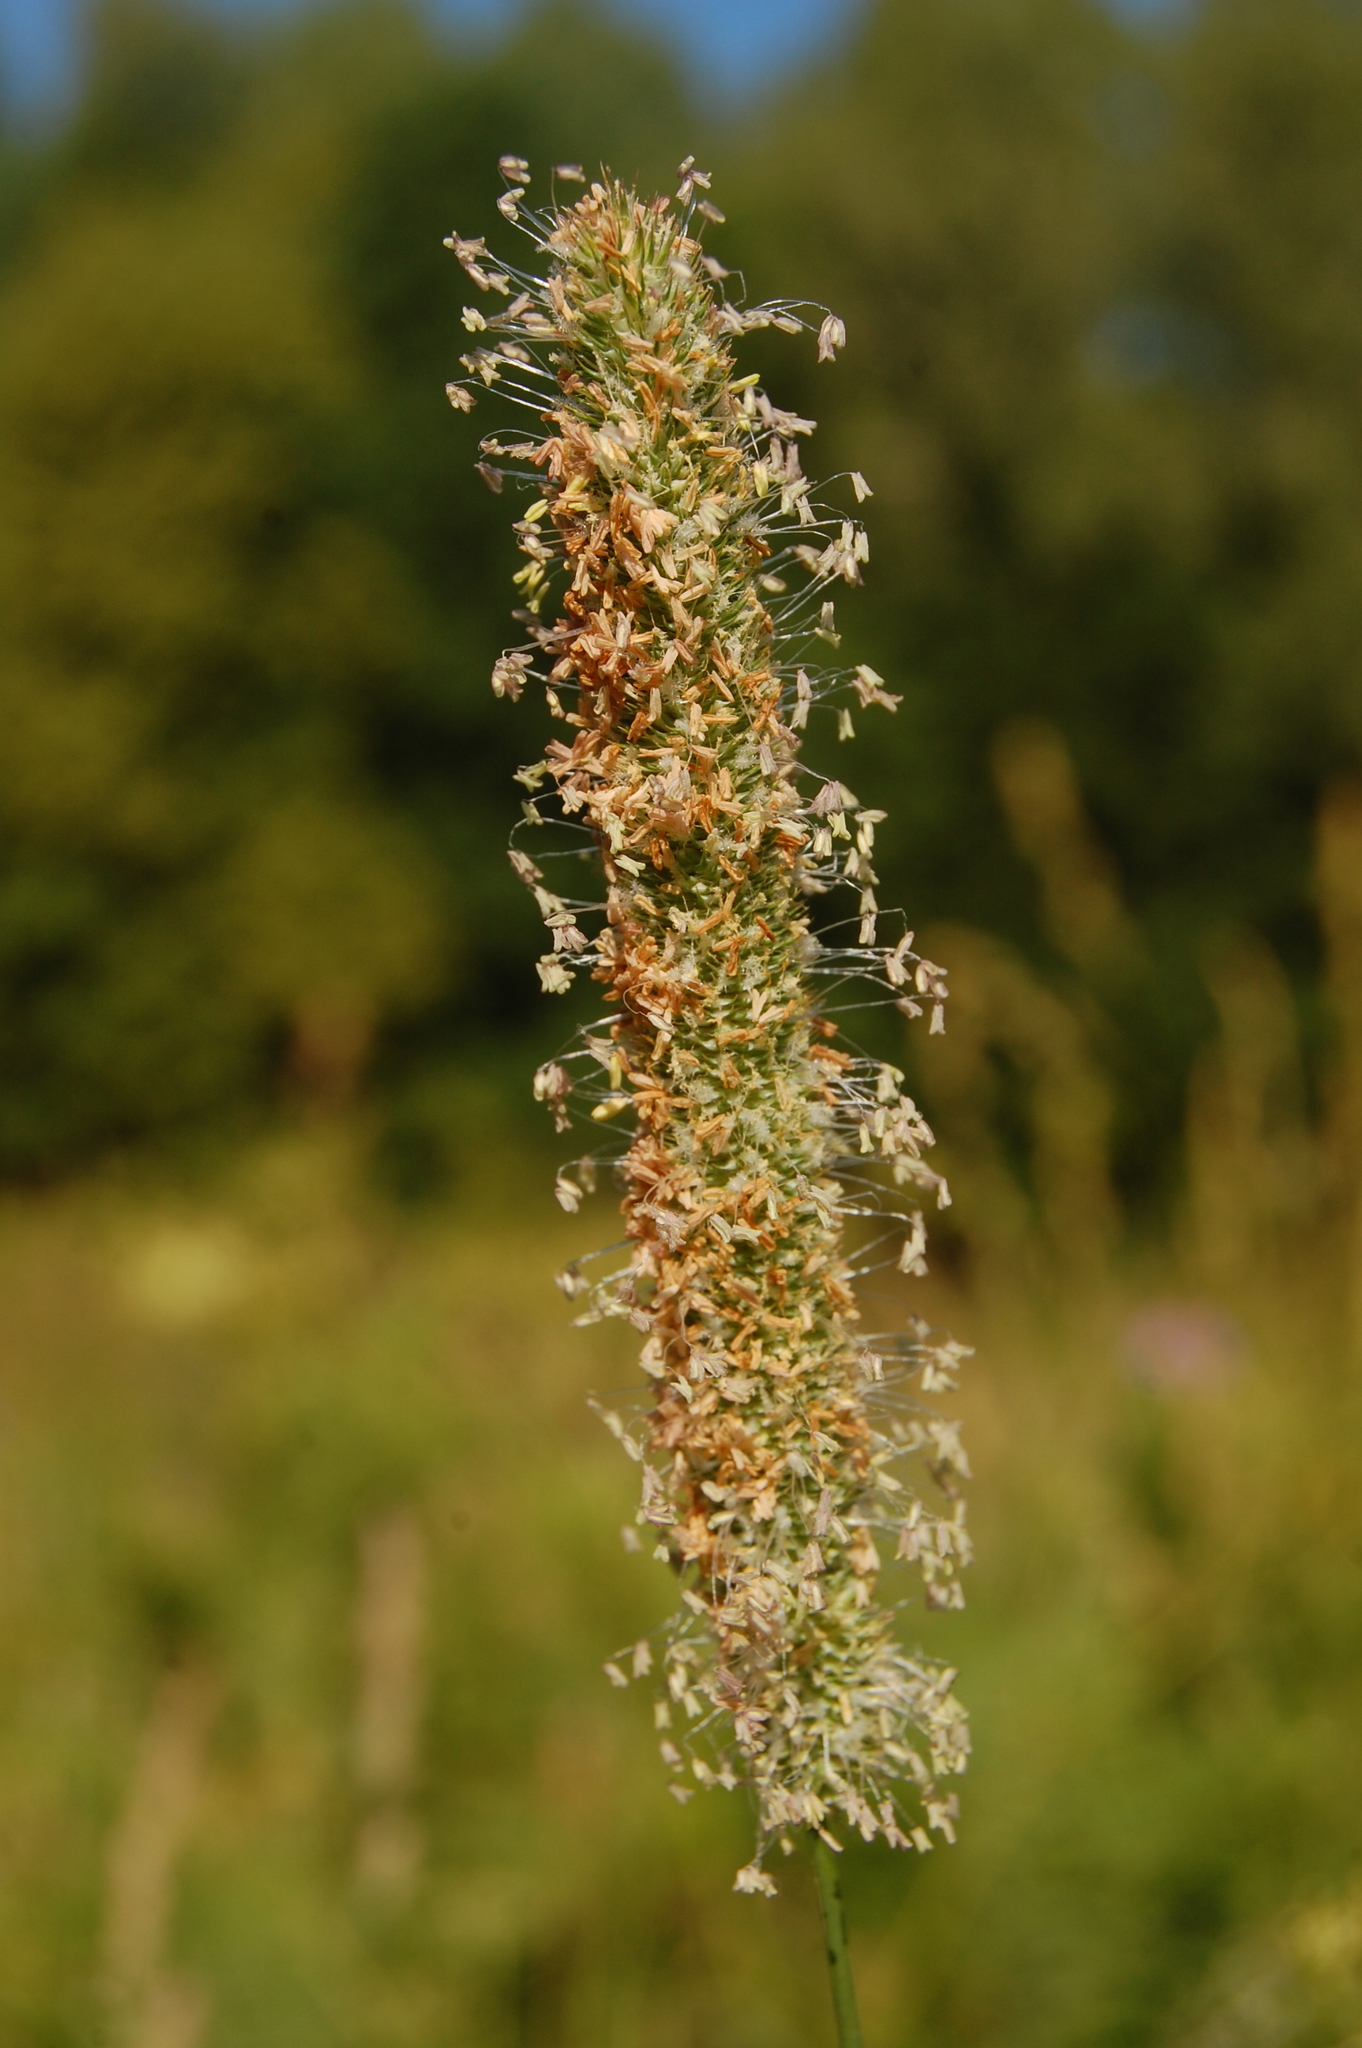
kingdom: Plantae
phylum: Tracheophyta
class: Liliopsida
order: Poales
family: Poaceae
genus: Phleum
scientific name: Phleum pratense
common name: Timothy grass
